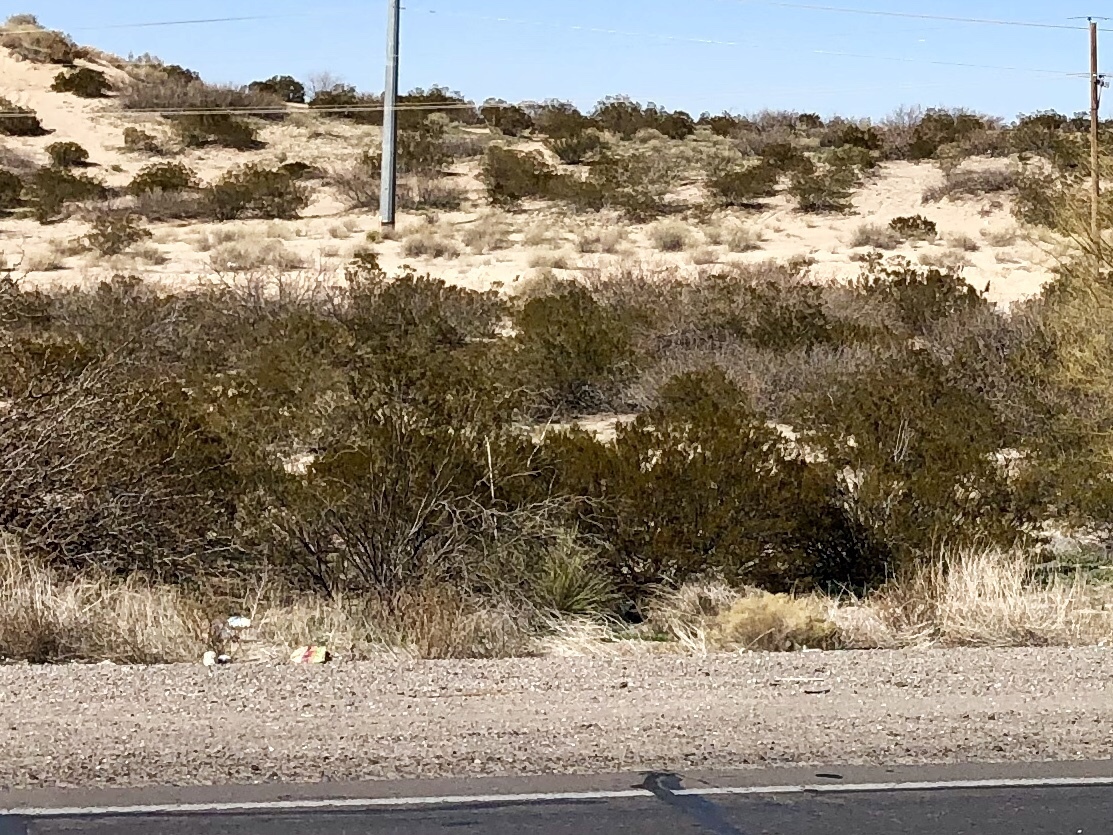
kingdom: Plantae
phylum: Tracheophyta
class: Magnoliopsida
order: Zygophyllales
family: Zygophyllaceae
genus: Larrea
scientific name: Larrea tridentata
